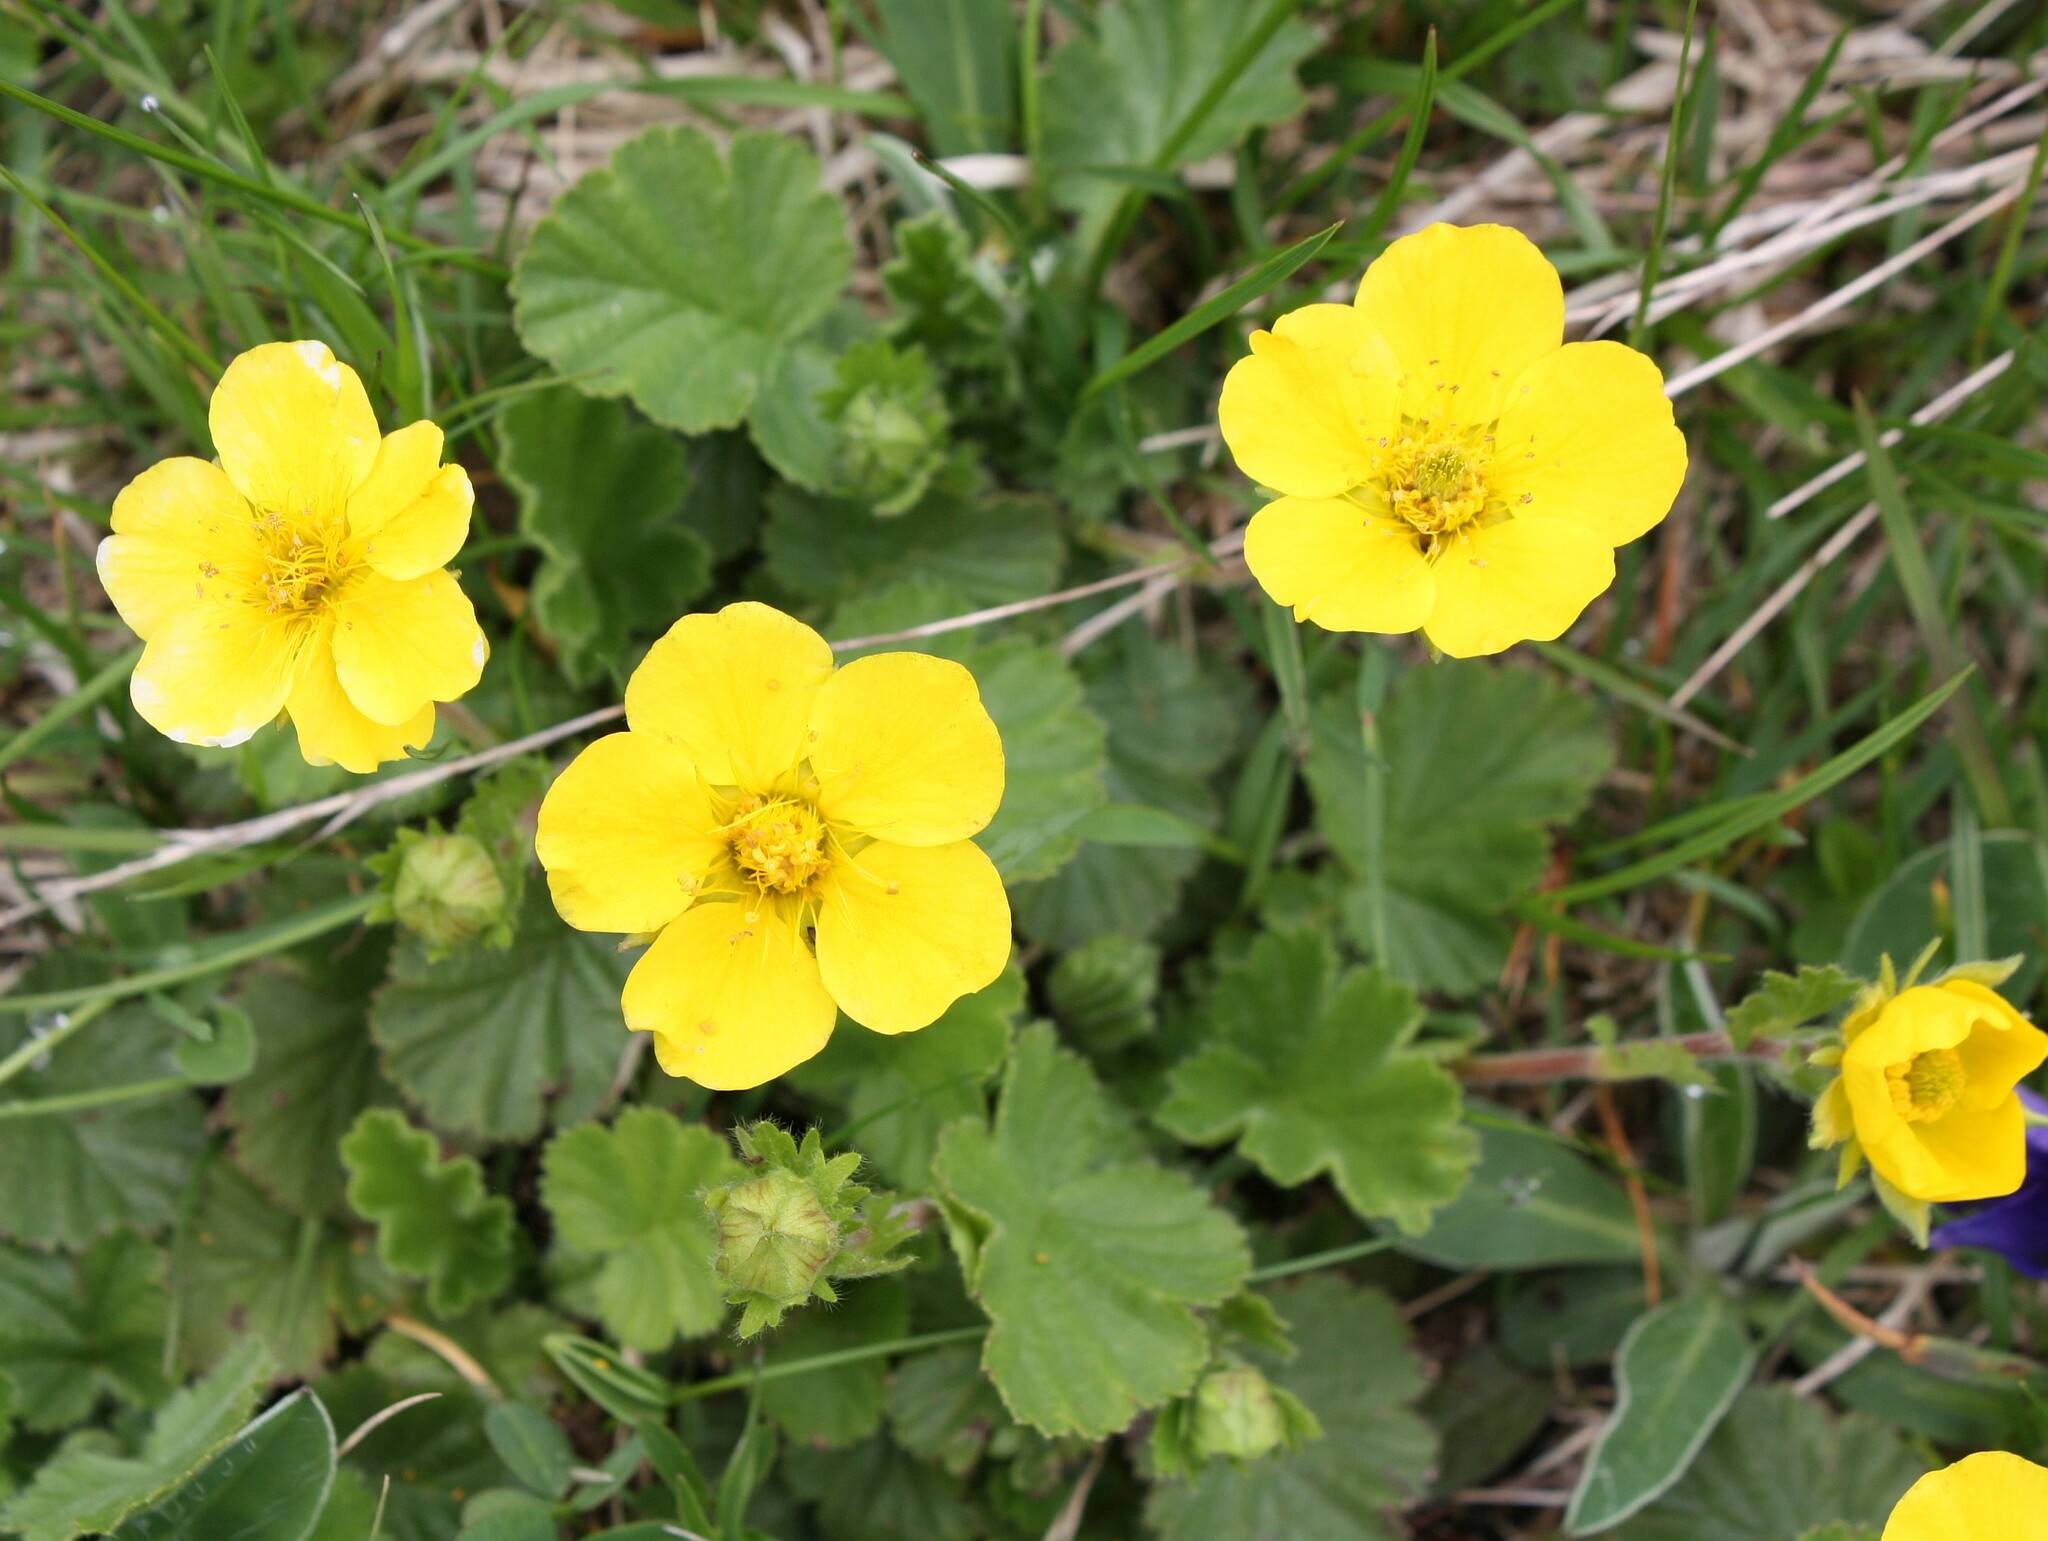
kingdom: Plantae
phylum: Tracheophyta
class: Magnoliopsida
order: Rosales
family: Rosaceae
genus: Geum
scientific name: Geum montanum
